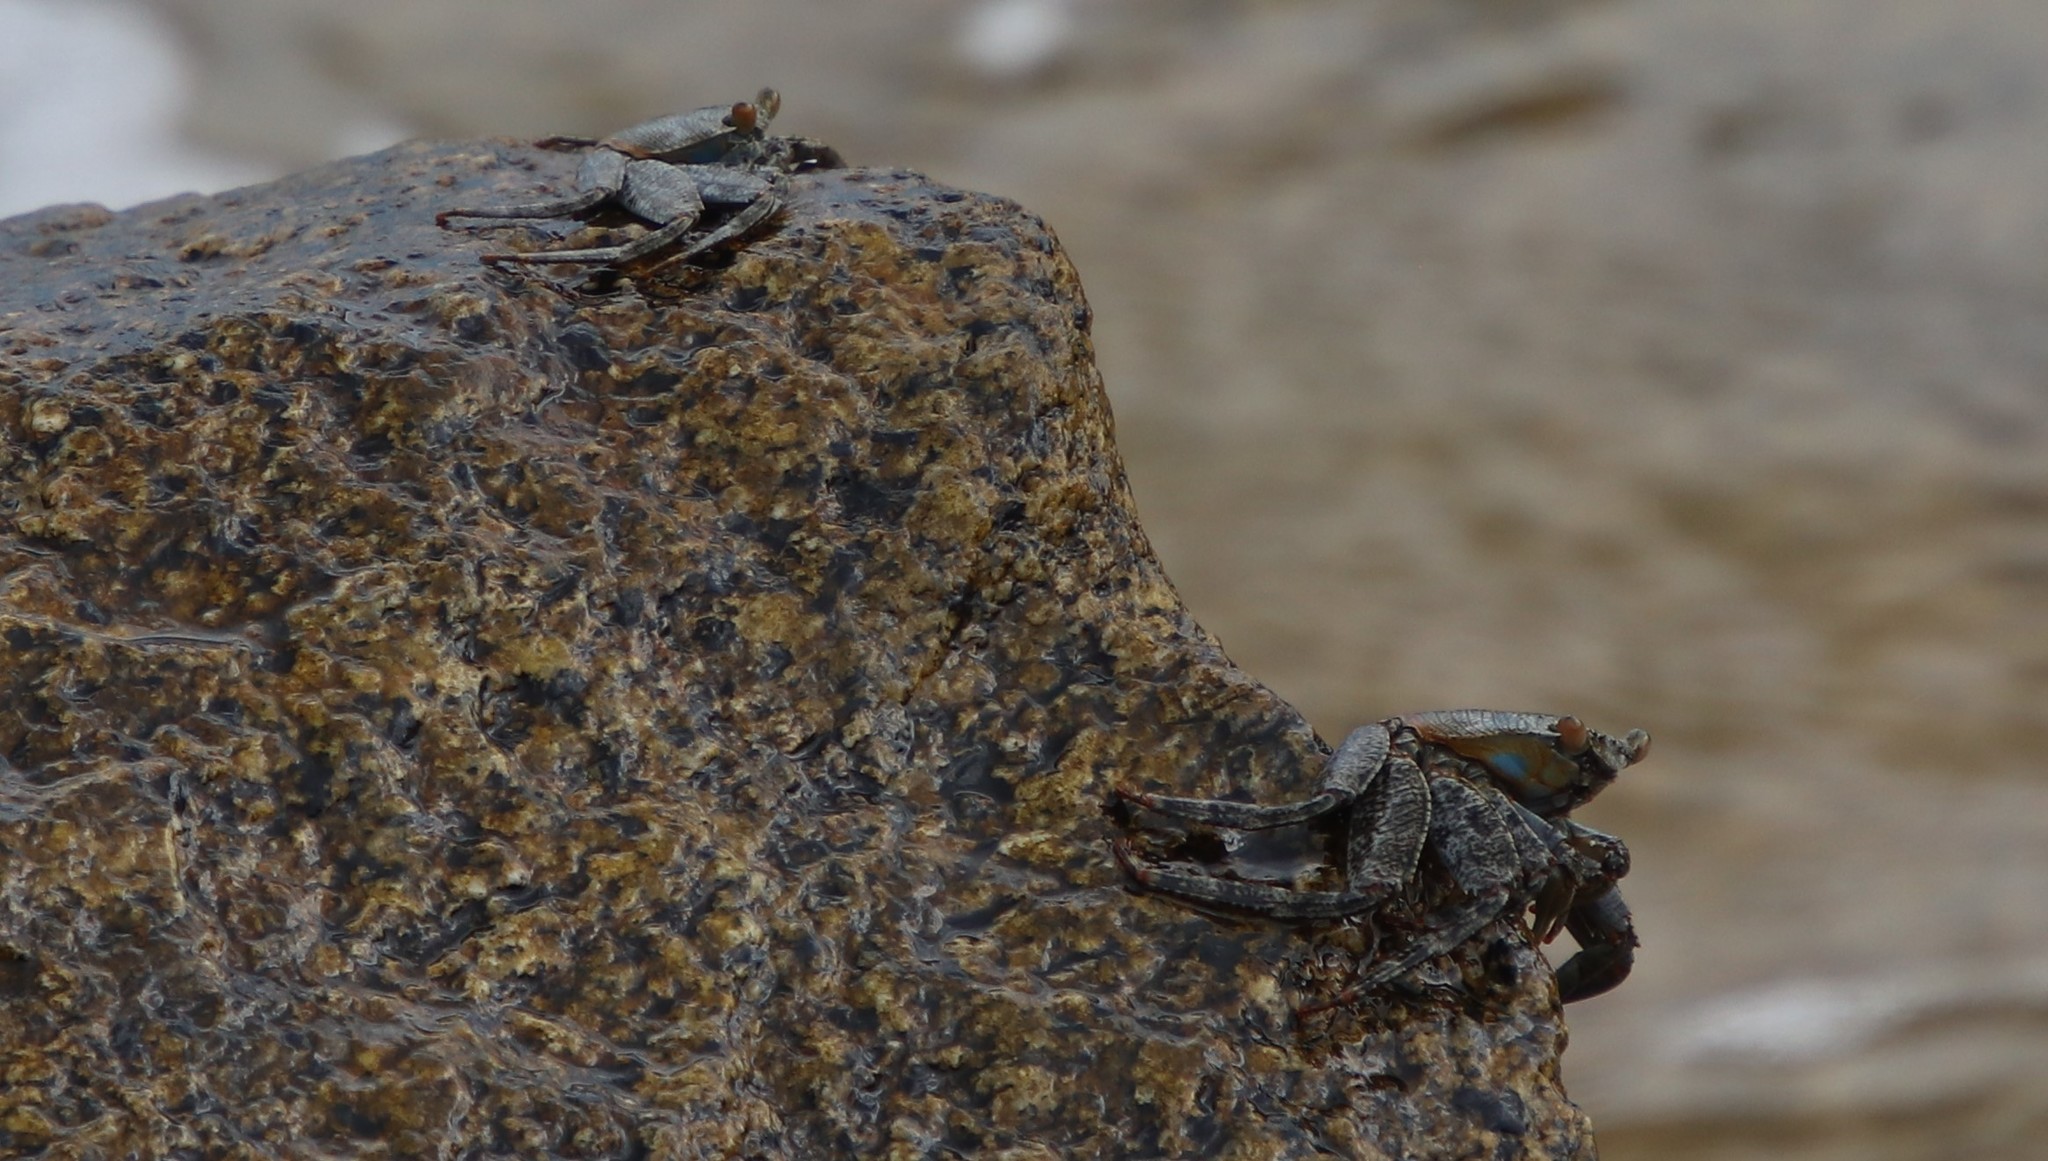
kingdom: Animalia
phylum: Arthropoda
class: Malacostraca
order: Decapoda
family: Grapsidae
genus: Grapsus
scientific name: Grapsus grapsus
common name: Sally lightfoot
